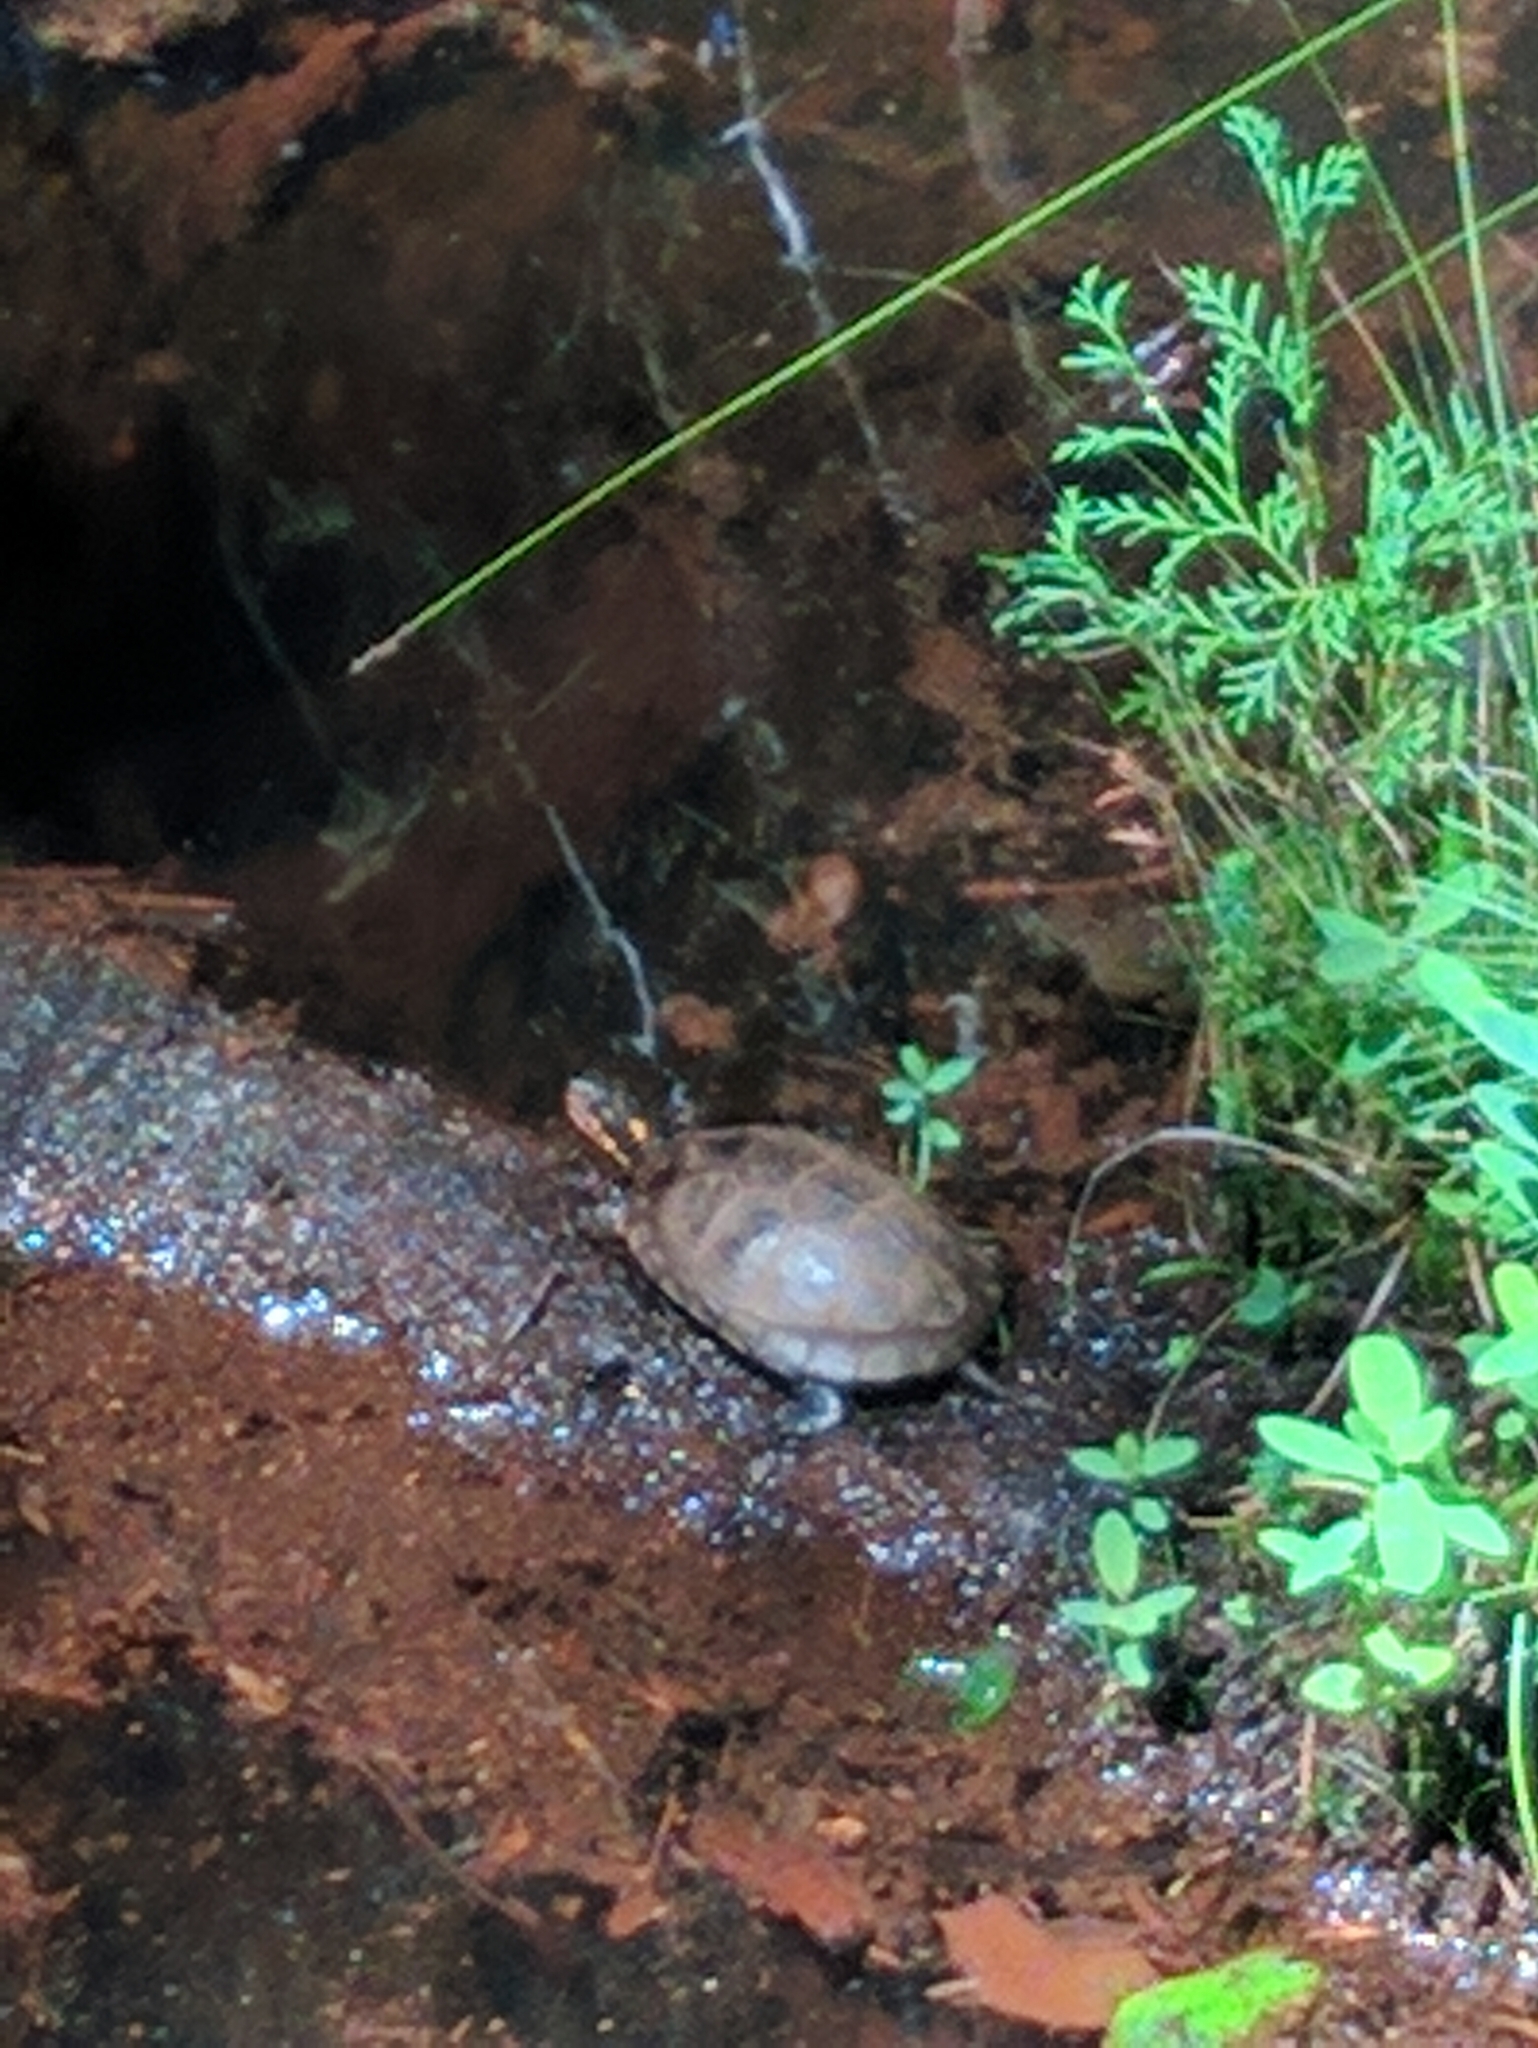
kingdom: Animalia
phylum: Chordata
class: Testudines
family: Emydidae
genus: Clemmys
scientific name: Clemmys guttata
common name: Spotted turtle
